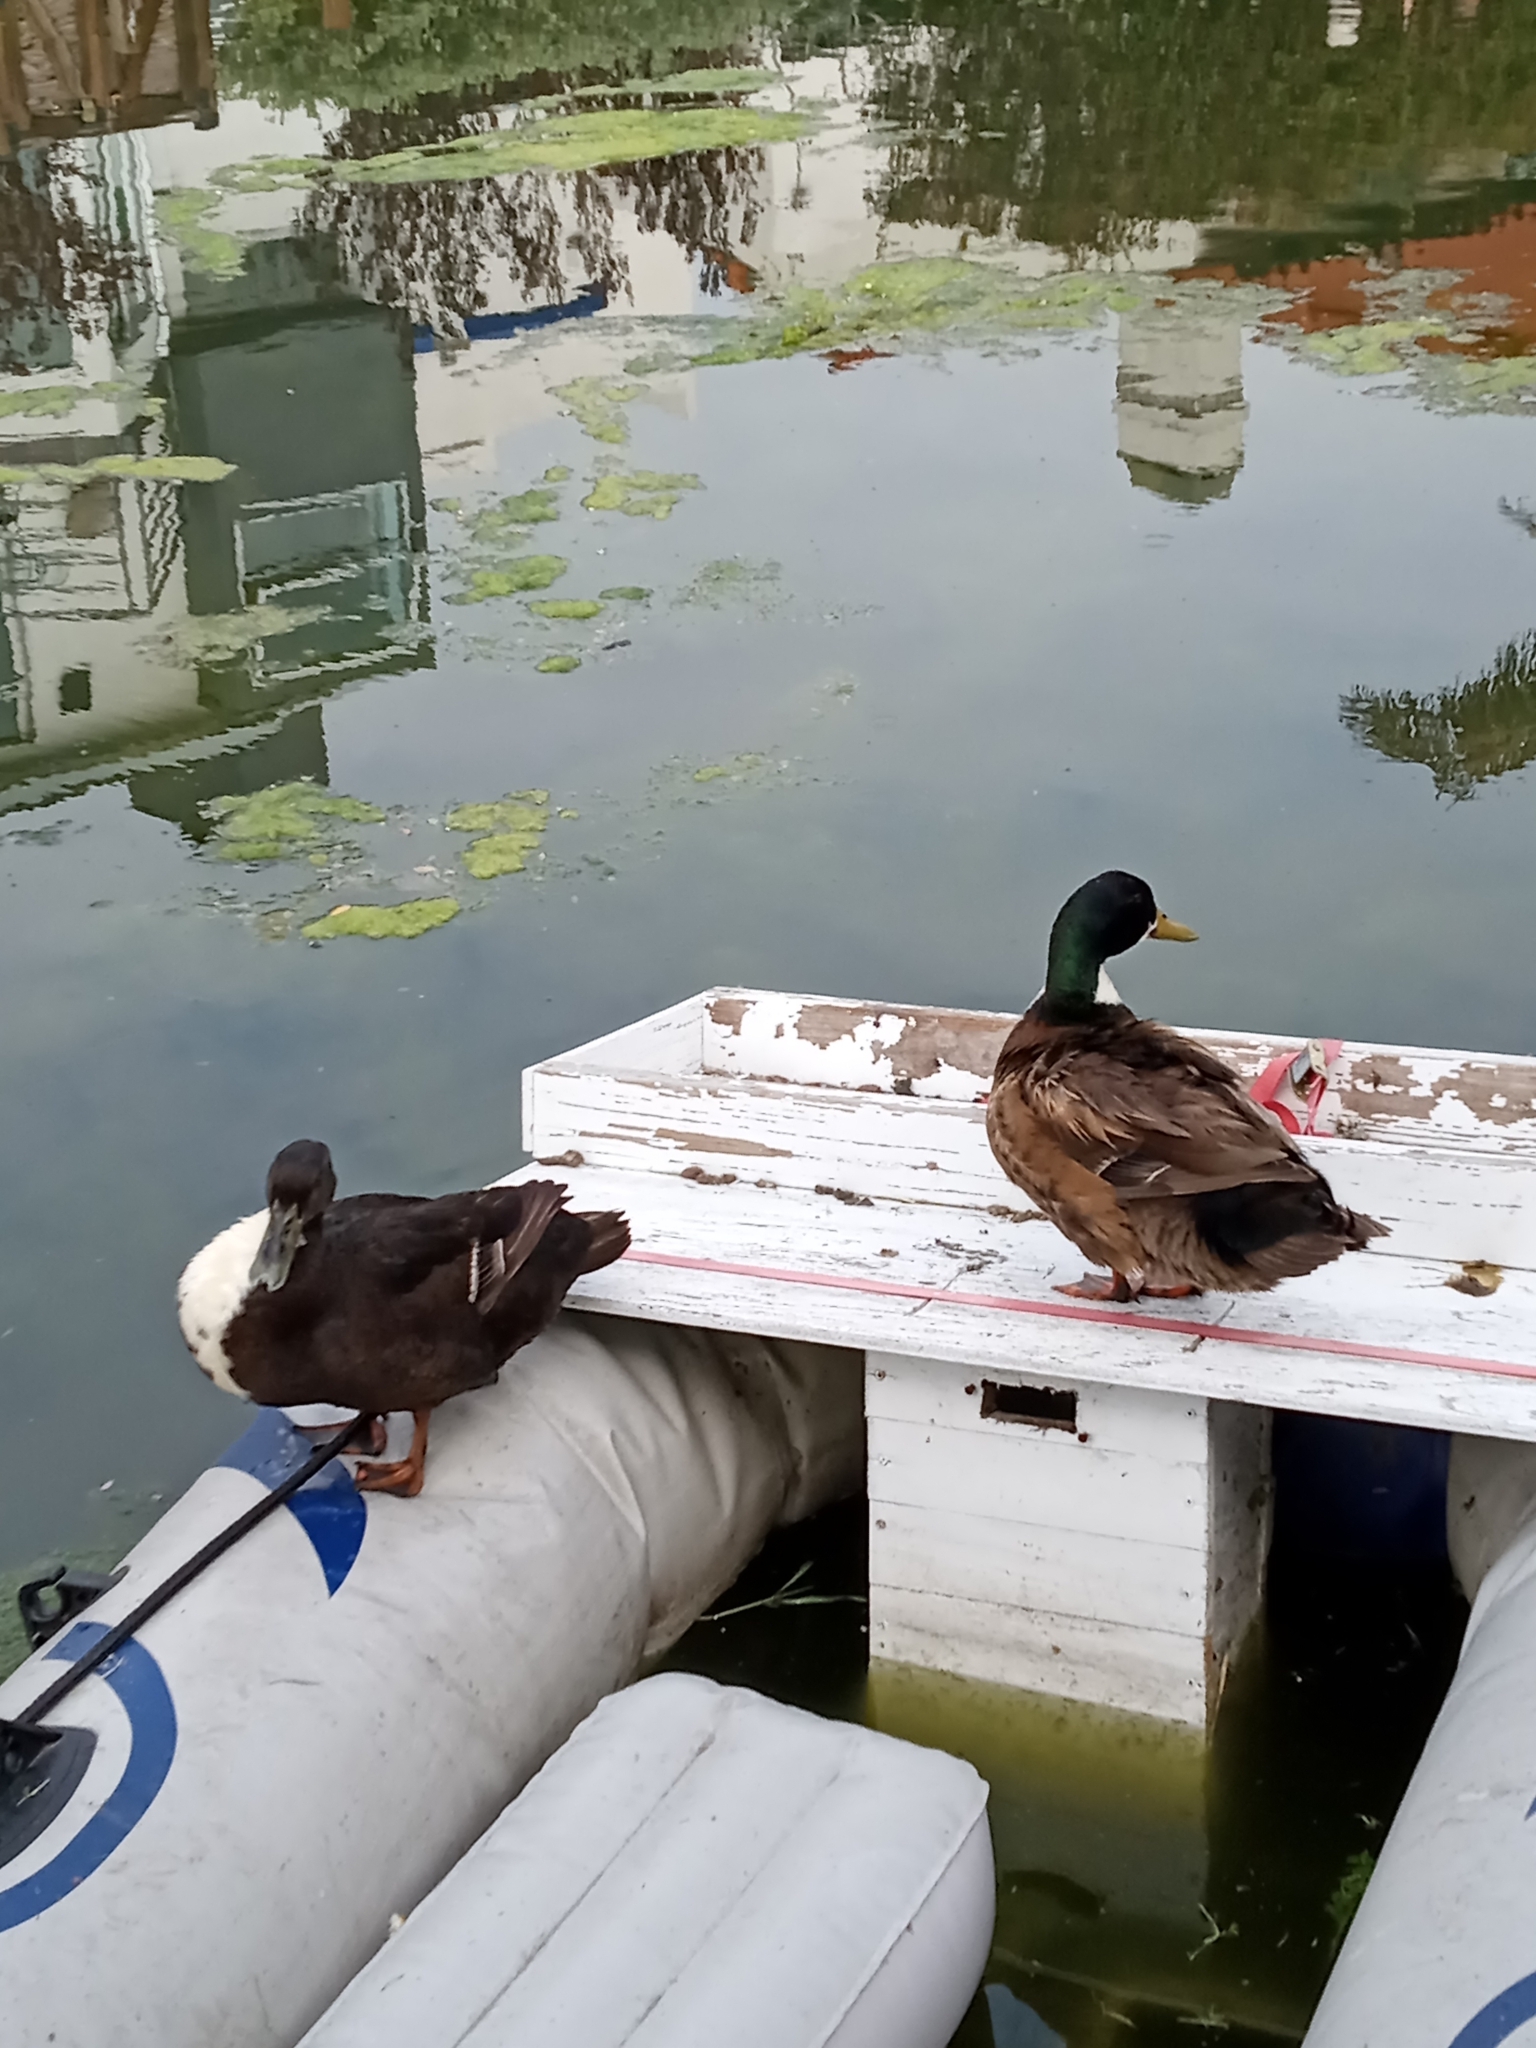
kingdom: Animalia
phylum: Chordata
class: Aves
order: Anseriformes
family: Anatidae
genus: Anas
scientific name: Anas platyrhynchos
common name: Mallard
